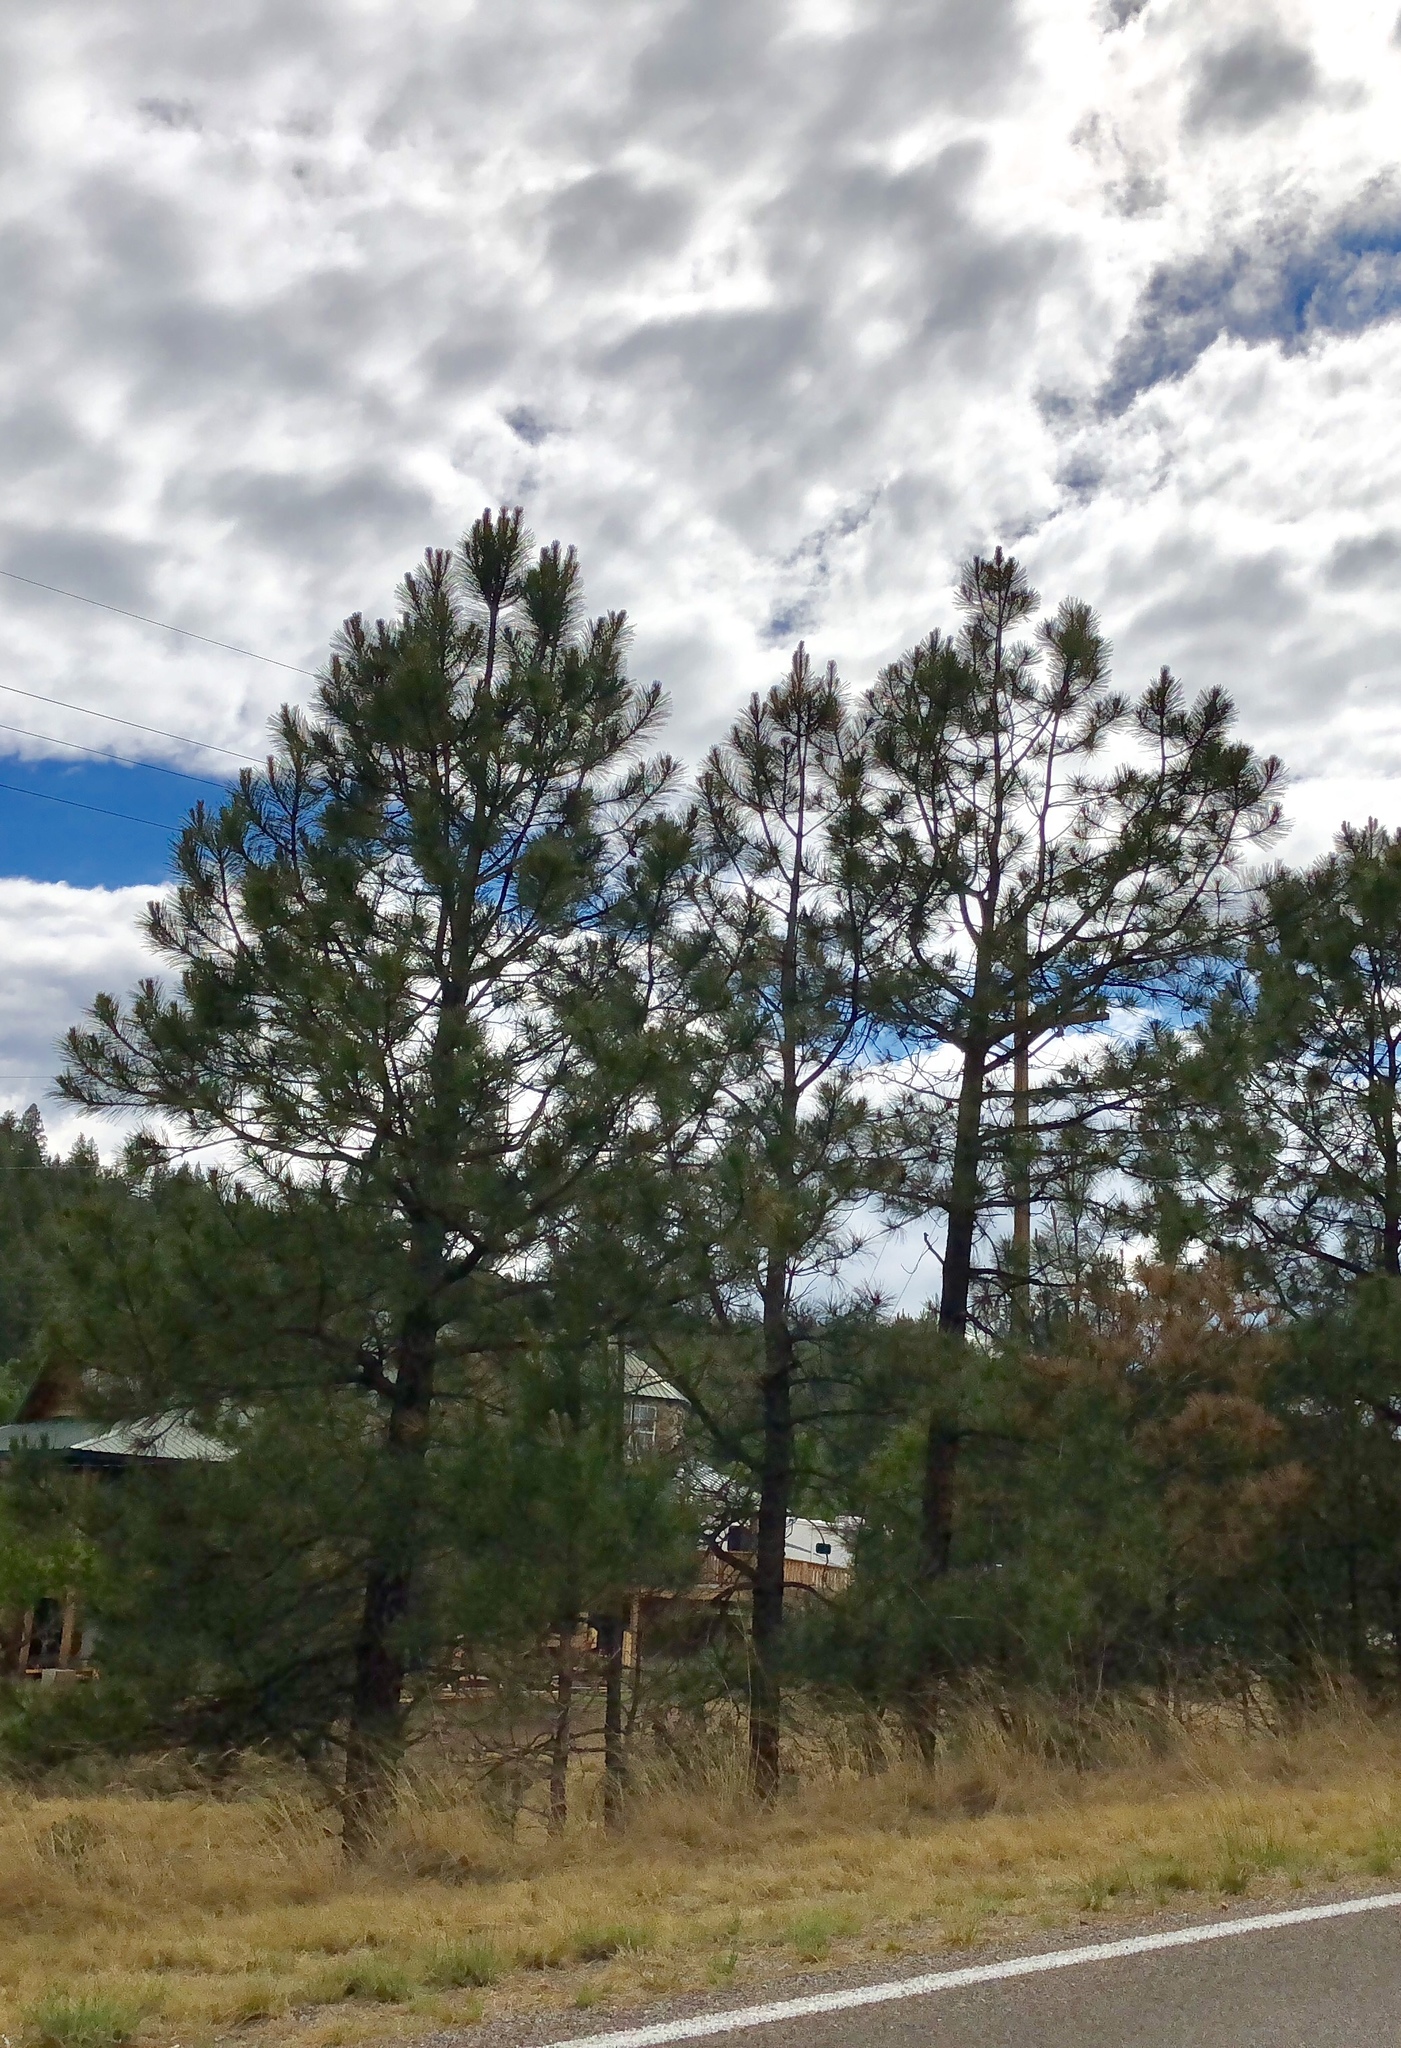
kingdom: Plantae
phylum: Tracheophyta
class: Pinopsida
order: Pinales
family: Pinaceae
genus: Pinus
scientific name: Pinus ponderosa
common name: Western yellow-pine
